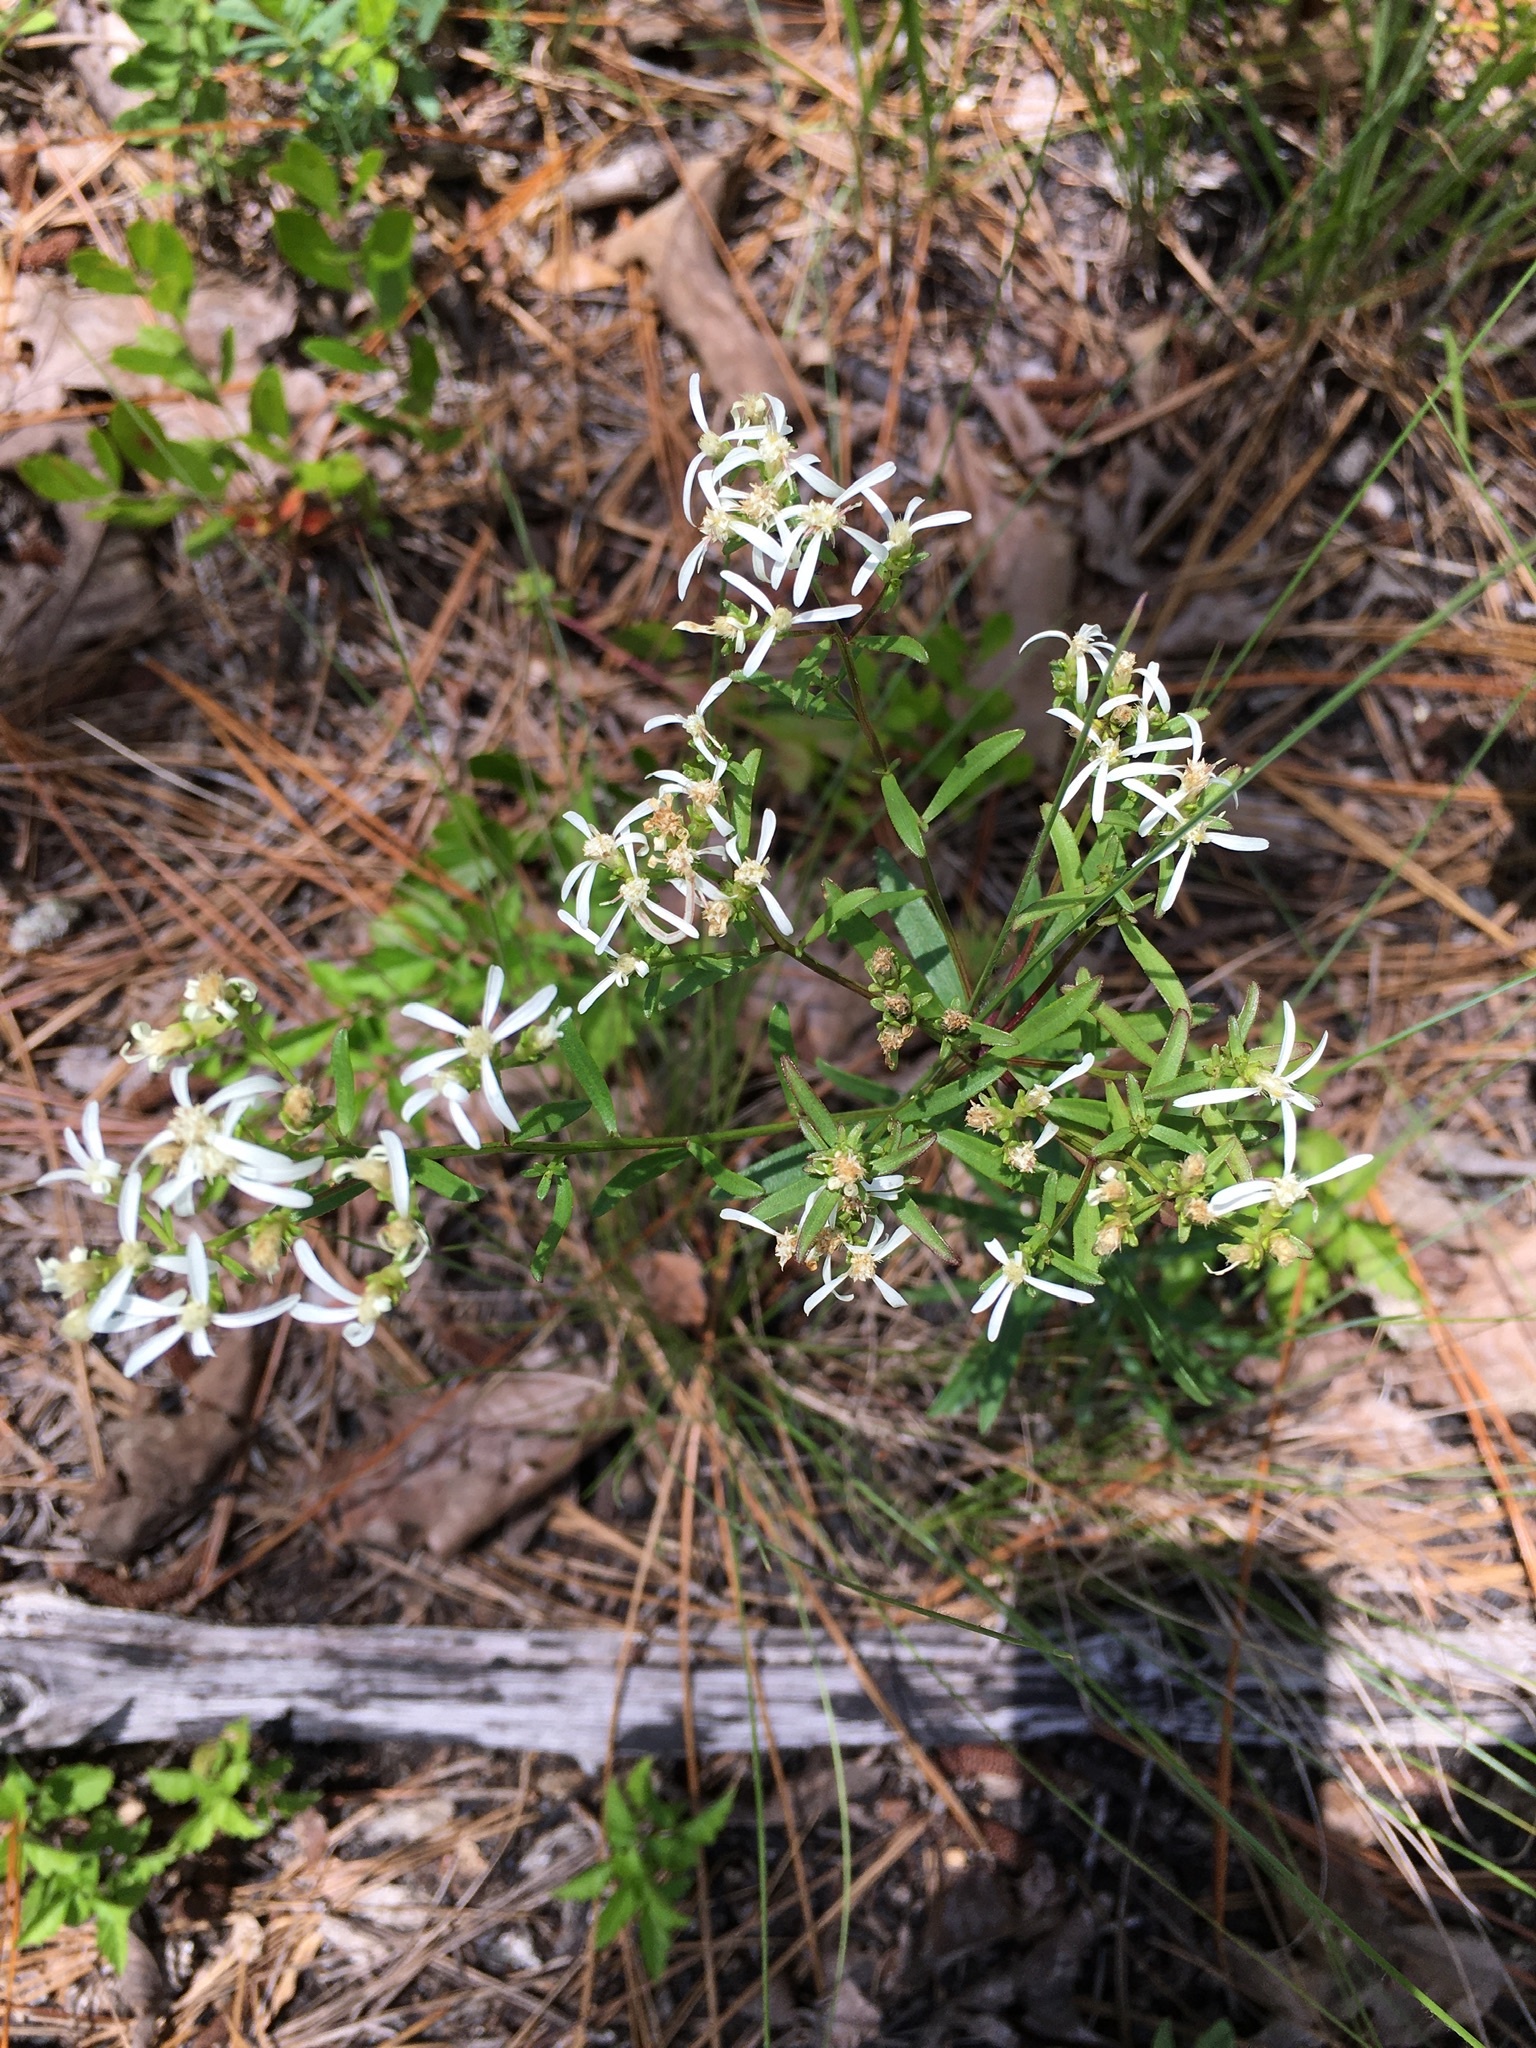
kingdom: Plantae
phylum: Tracheophyta
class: Magnoliopsida
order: Asterales
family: Asteraceae
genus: Sericocarpus
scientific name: Sericocarpus linifolius
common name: Narrow-leaf aster
